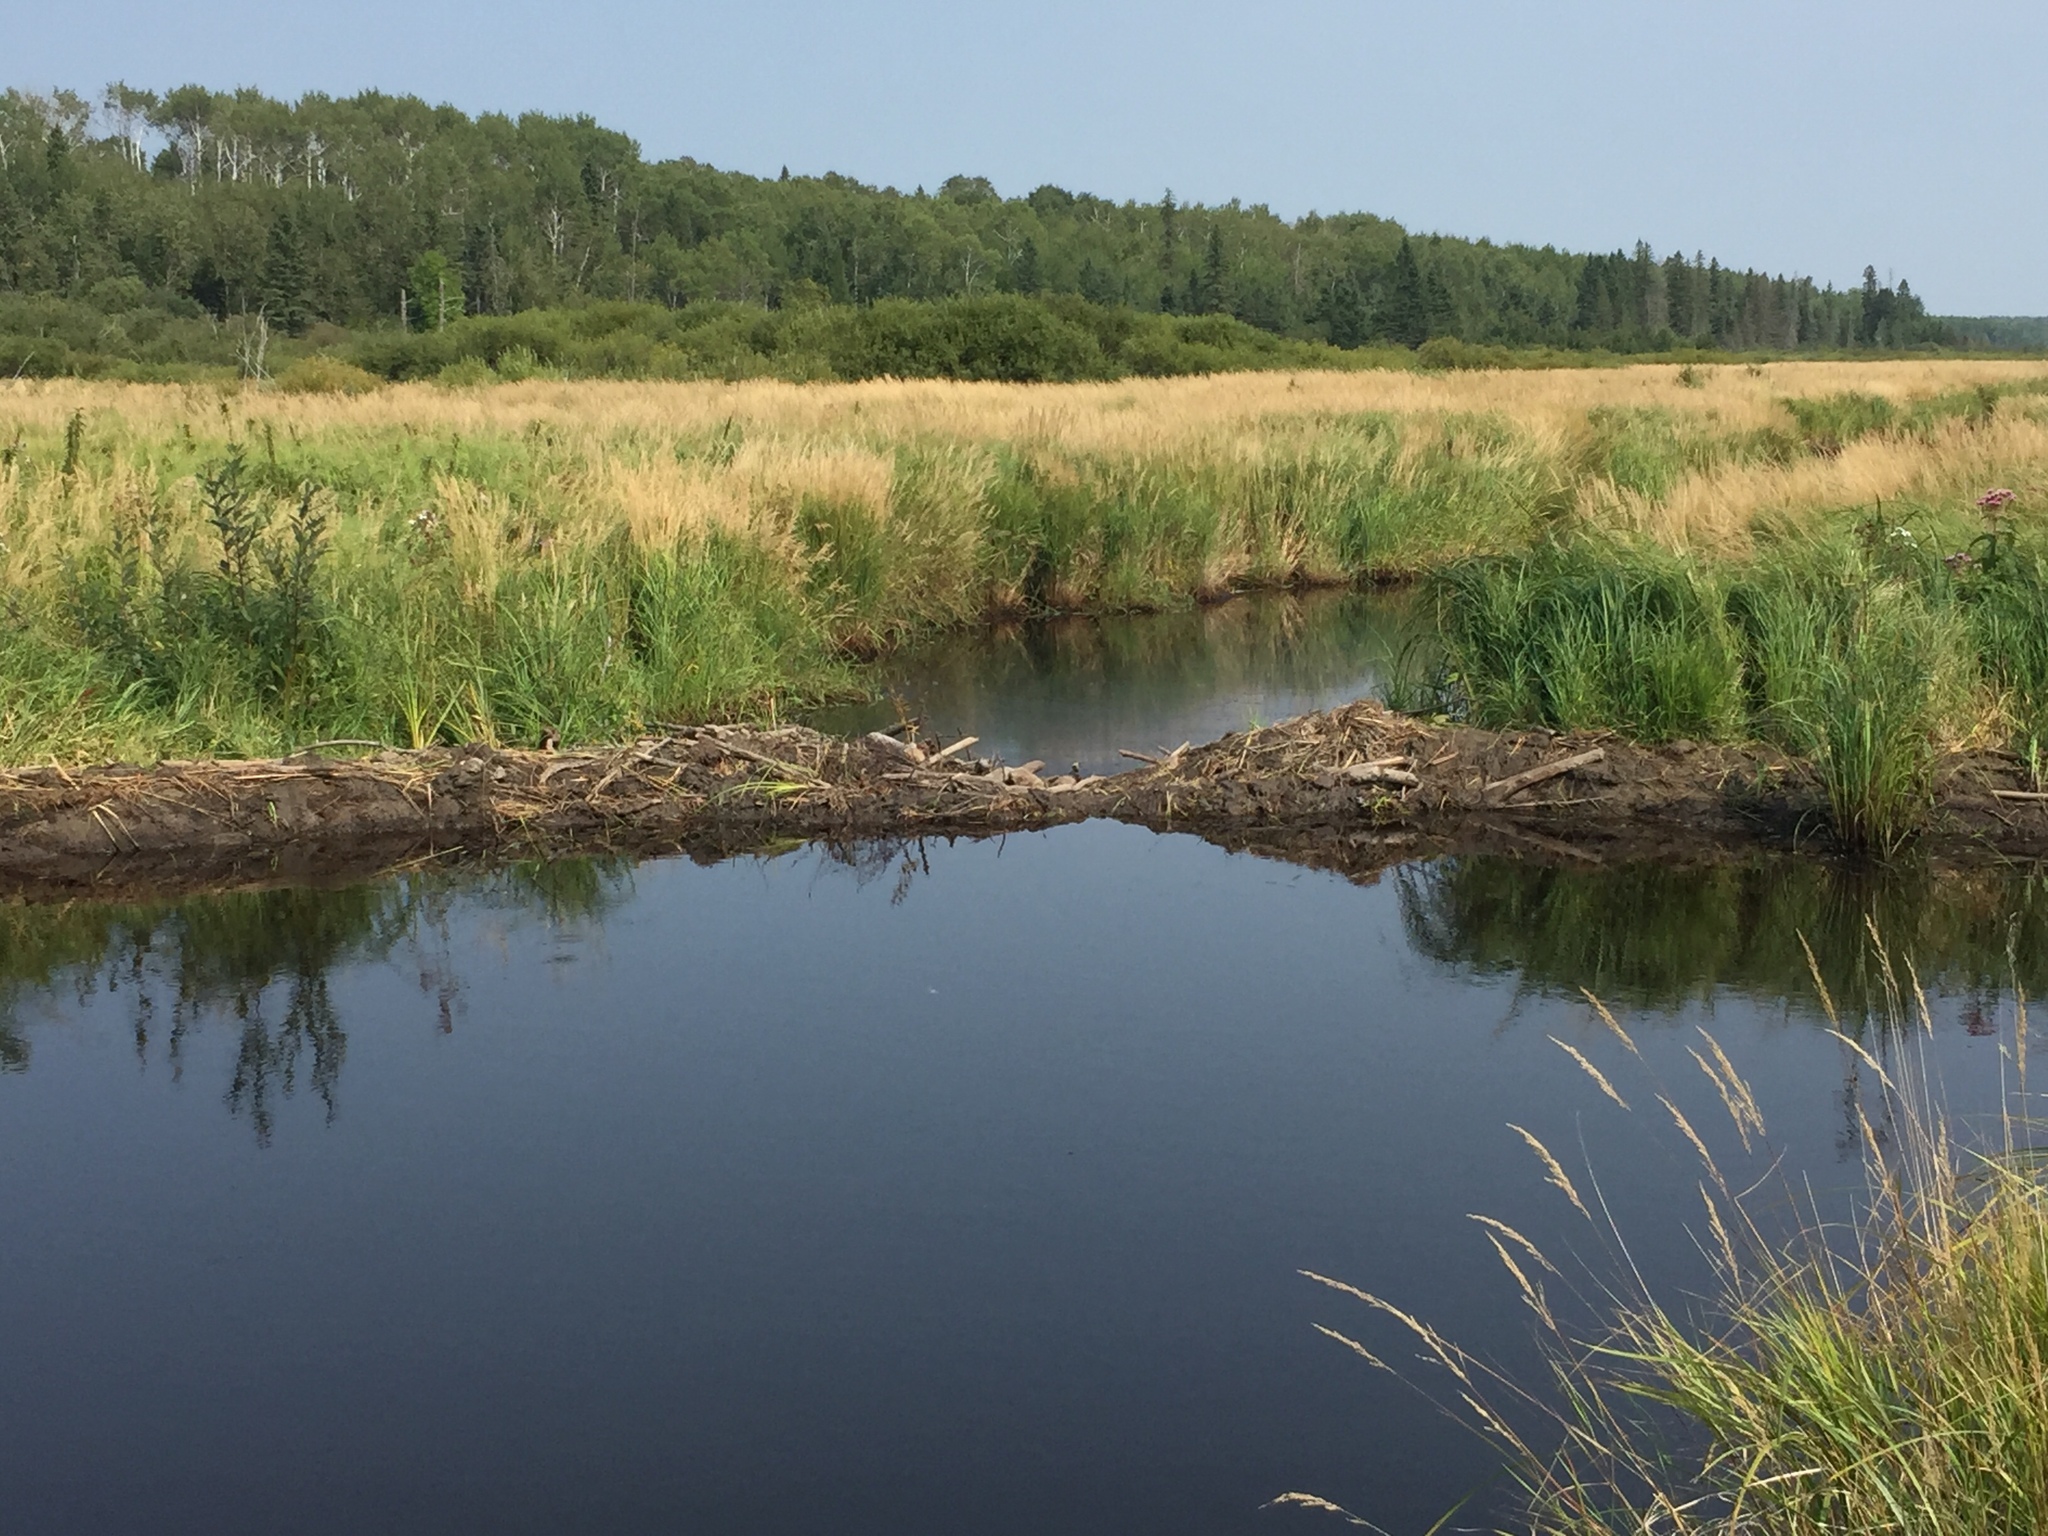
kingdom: Animalia
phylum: Chordata
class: Mammalia
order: Rodentia
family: Castoridae
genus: Castor
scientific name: Castor canadensis
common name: American beaver
